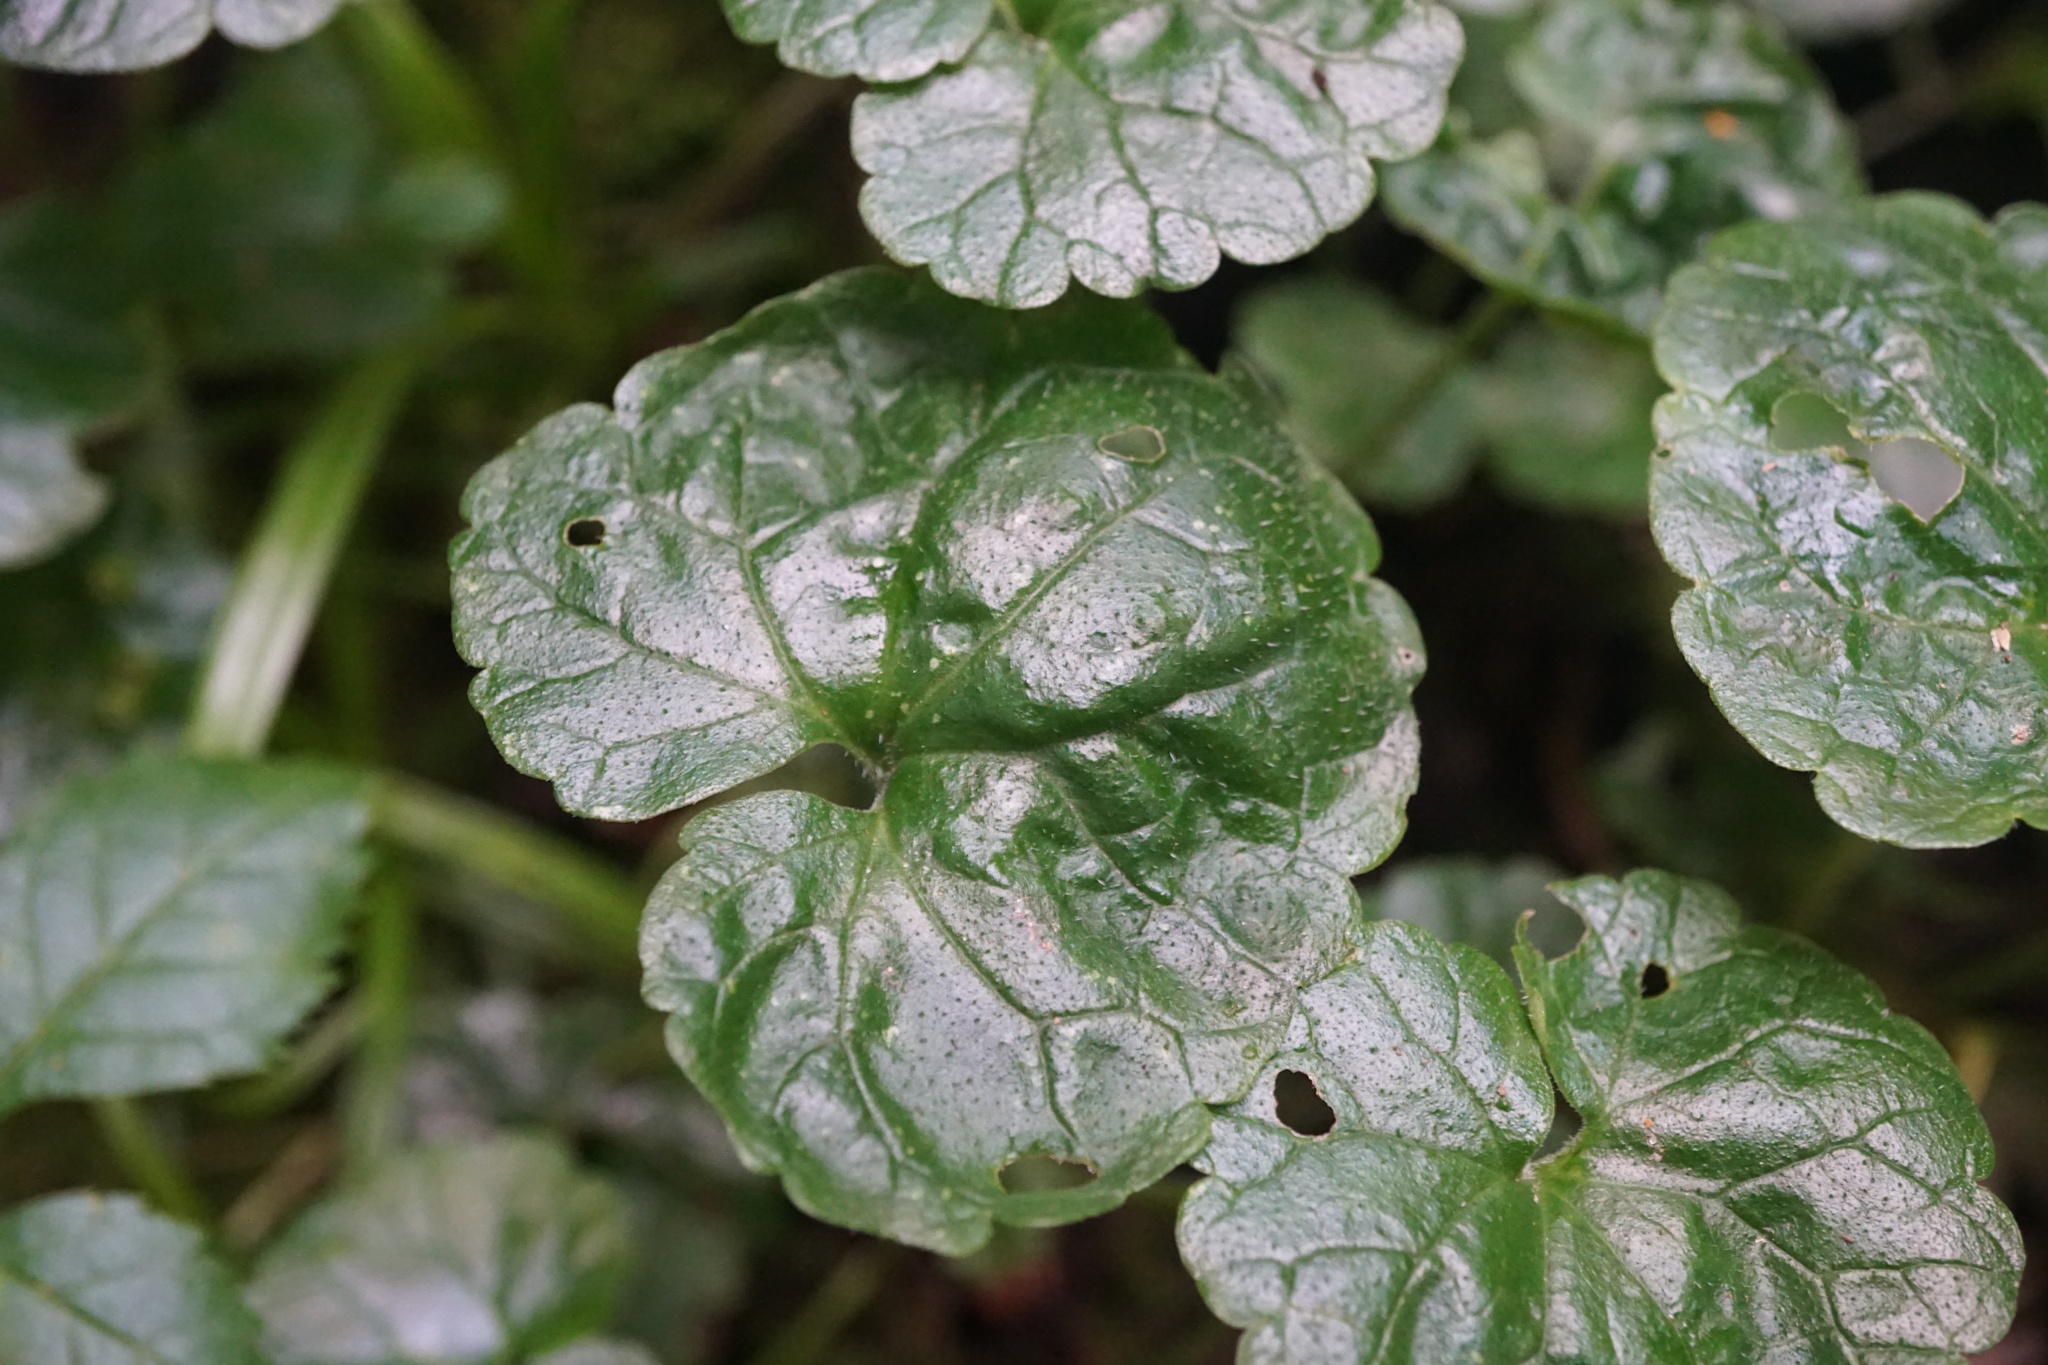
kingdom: Plantae
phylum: Tracheophyta
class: Magnoliopsida
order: Lamiales
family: Lamiaceae
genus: Glechoma
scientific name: Glechoma hederacea
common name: Ground ivy
